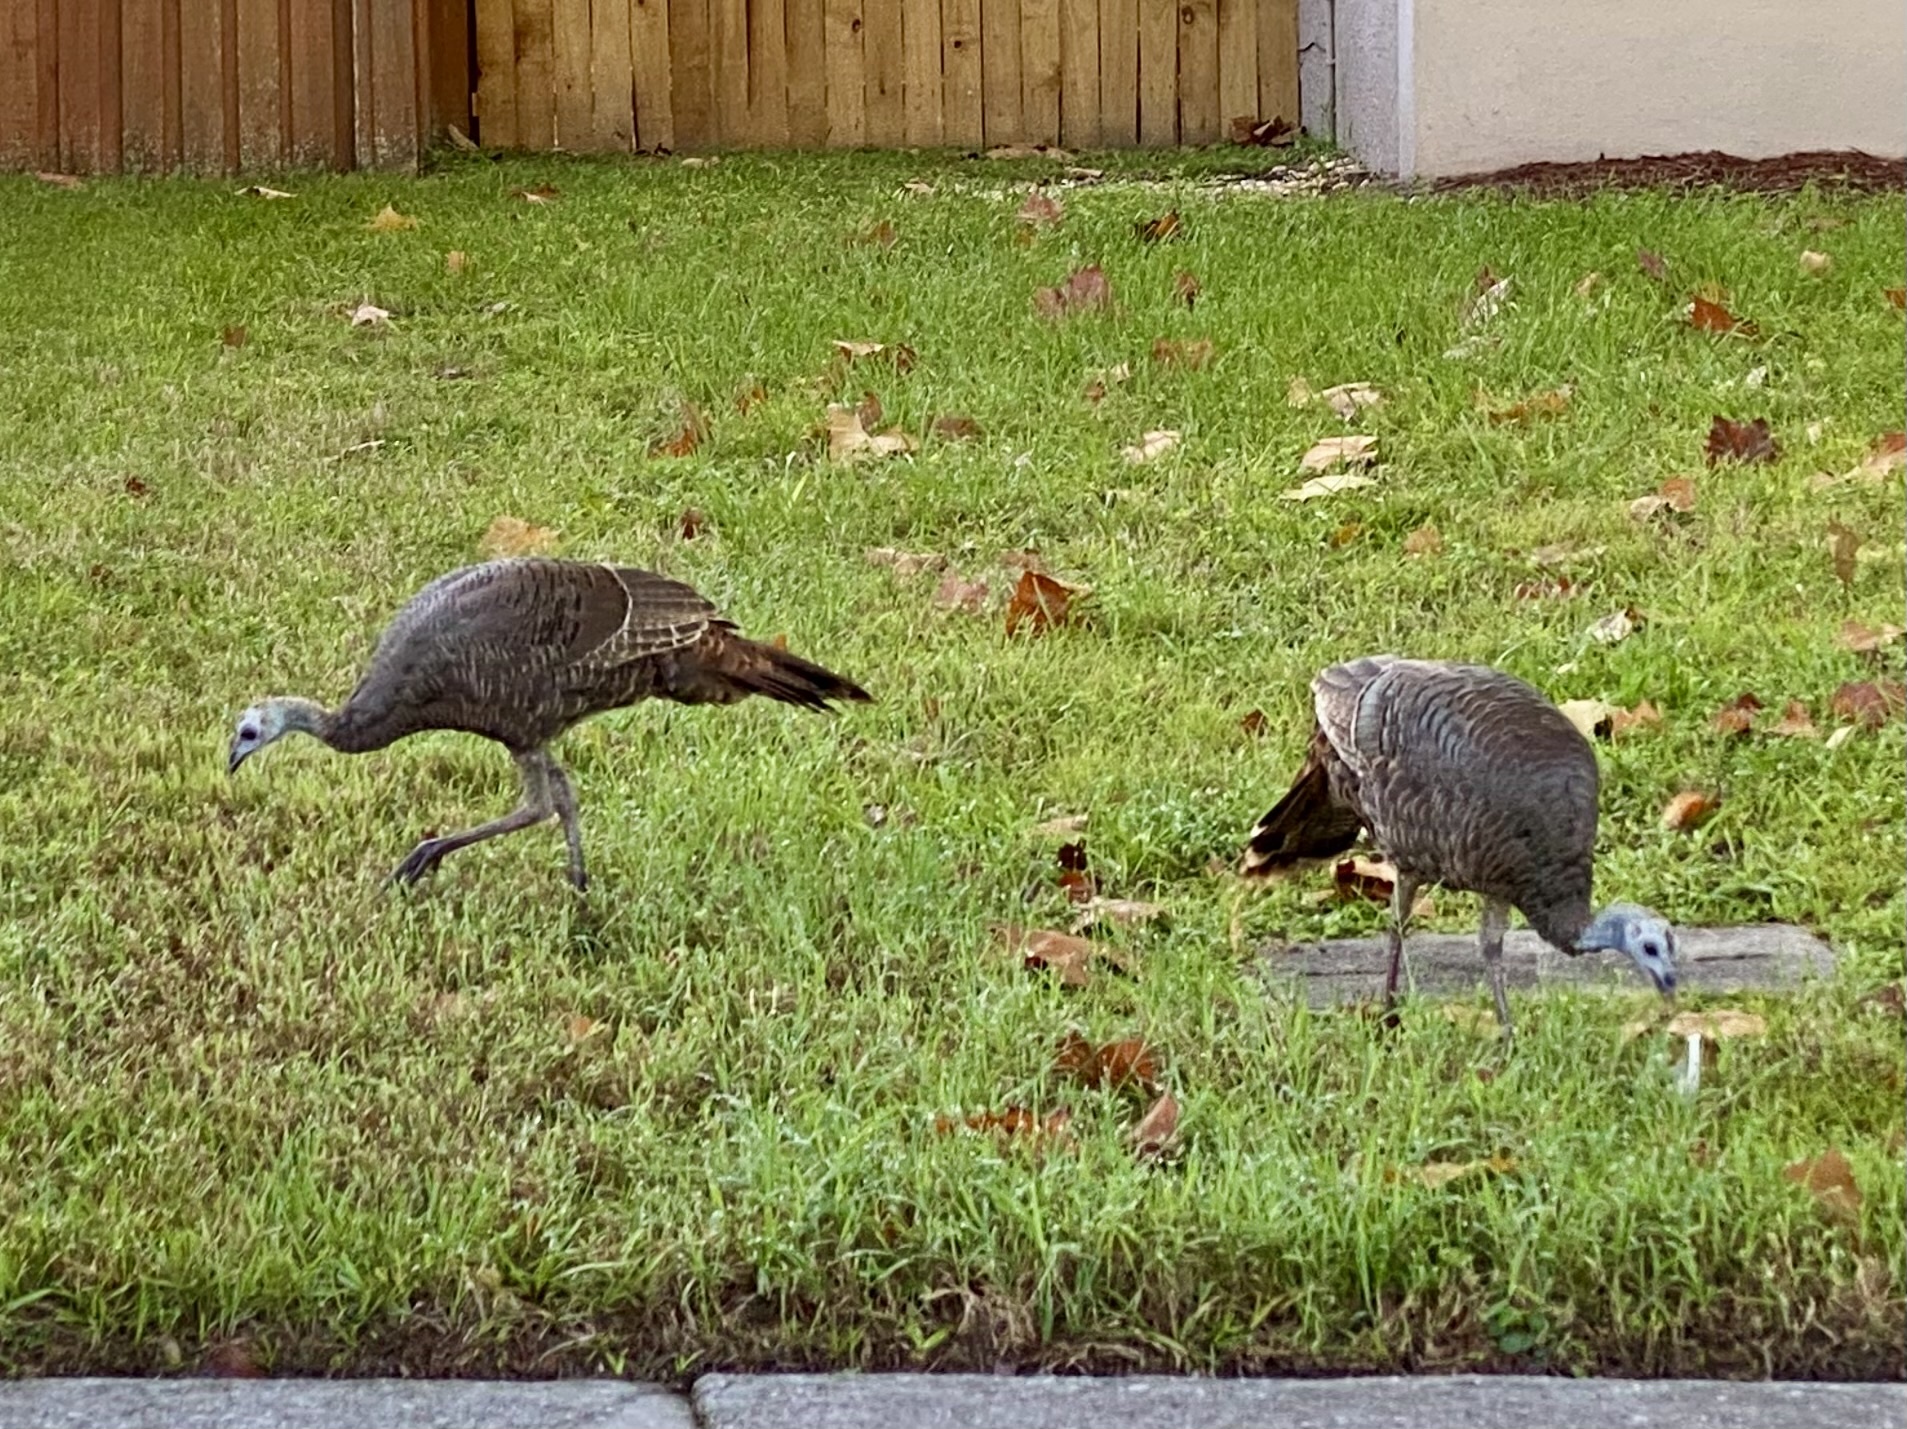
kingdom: Animalia
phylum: Chordata
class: Aves
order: Galliformes
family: Phasianidae
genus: Meleagris
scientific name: Meleagris gallopavo
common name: Wild turkey
